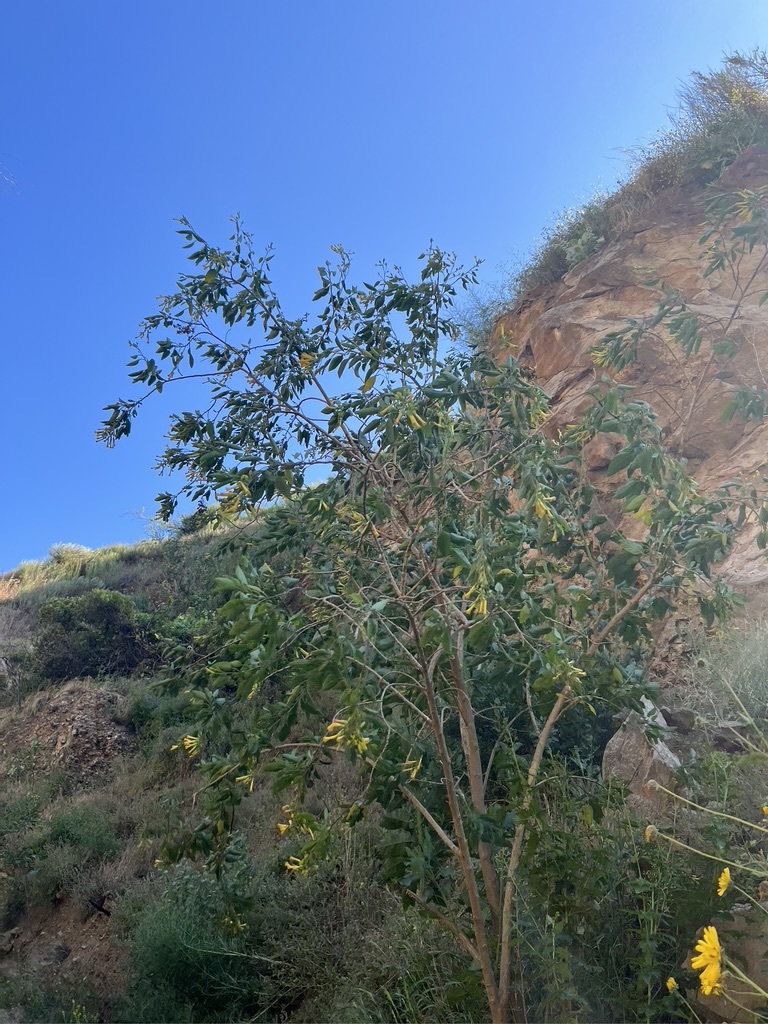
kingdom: Plantae
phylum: Tracheophyta
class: Magnoliopsida
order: Solanales
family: Solanaceae
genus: Nicotiana
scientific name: Nicotiana glauca
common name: Tree tobacco
